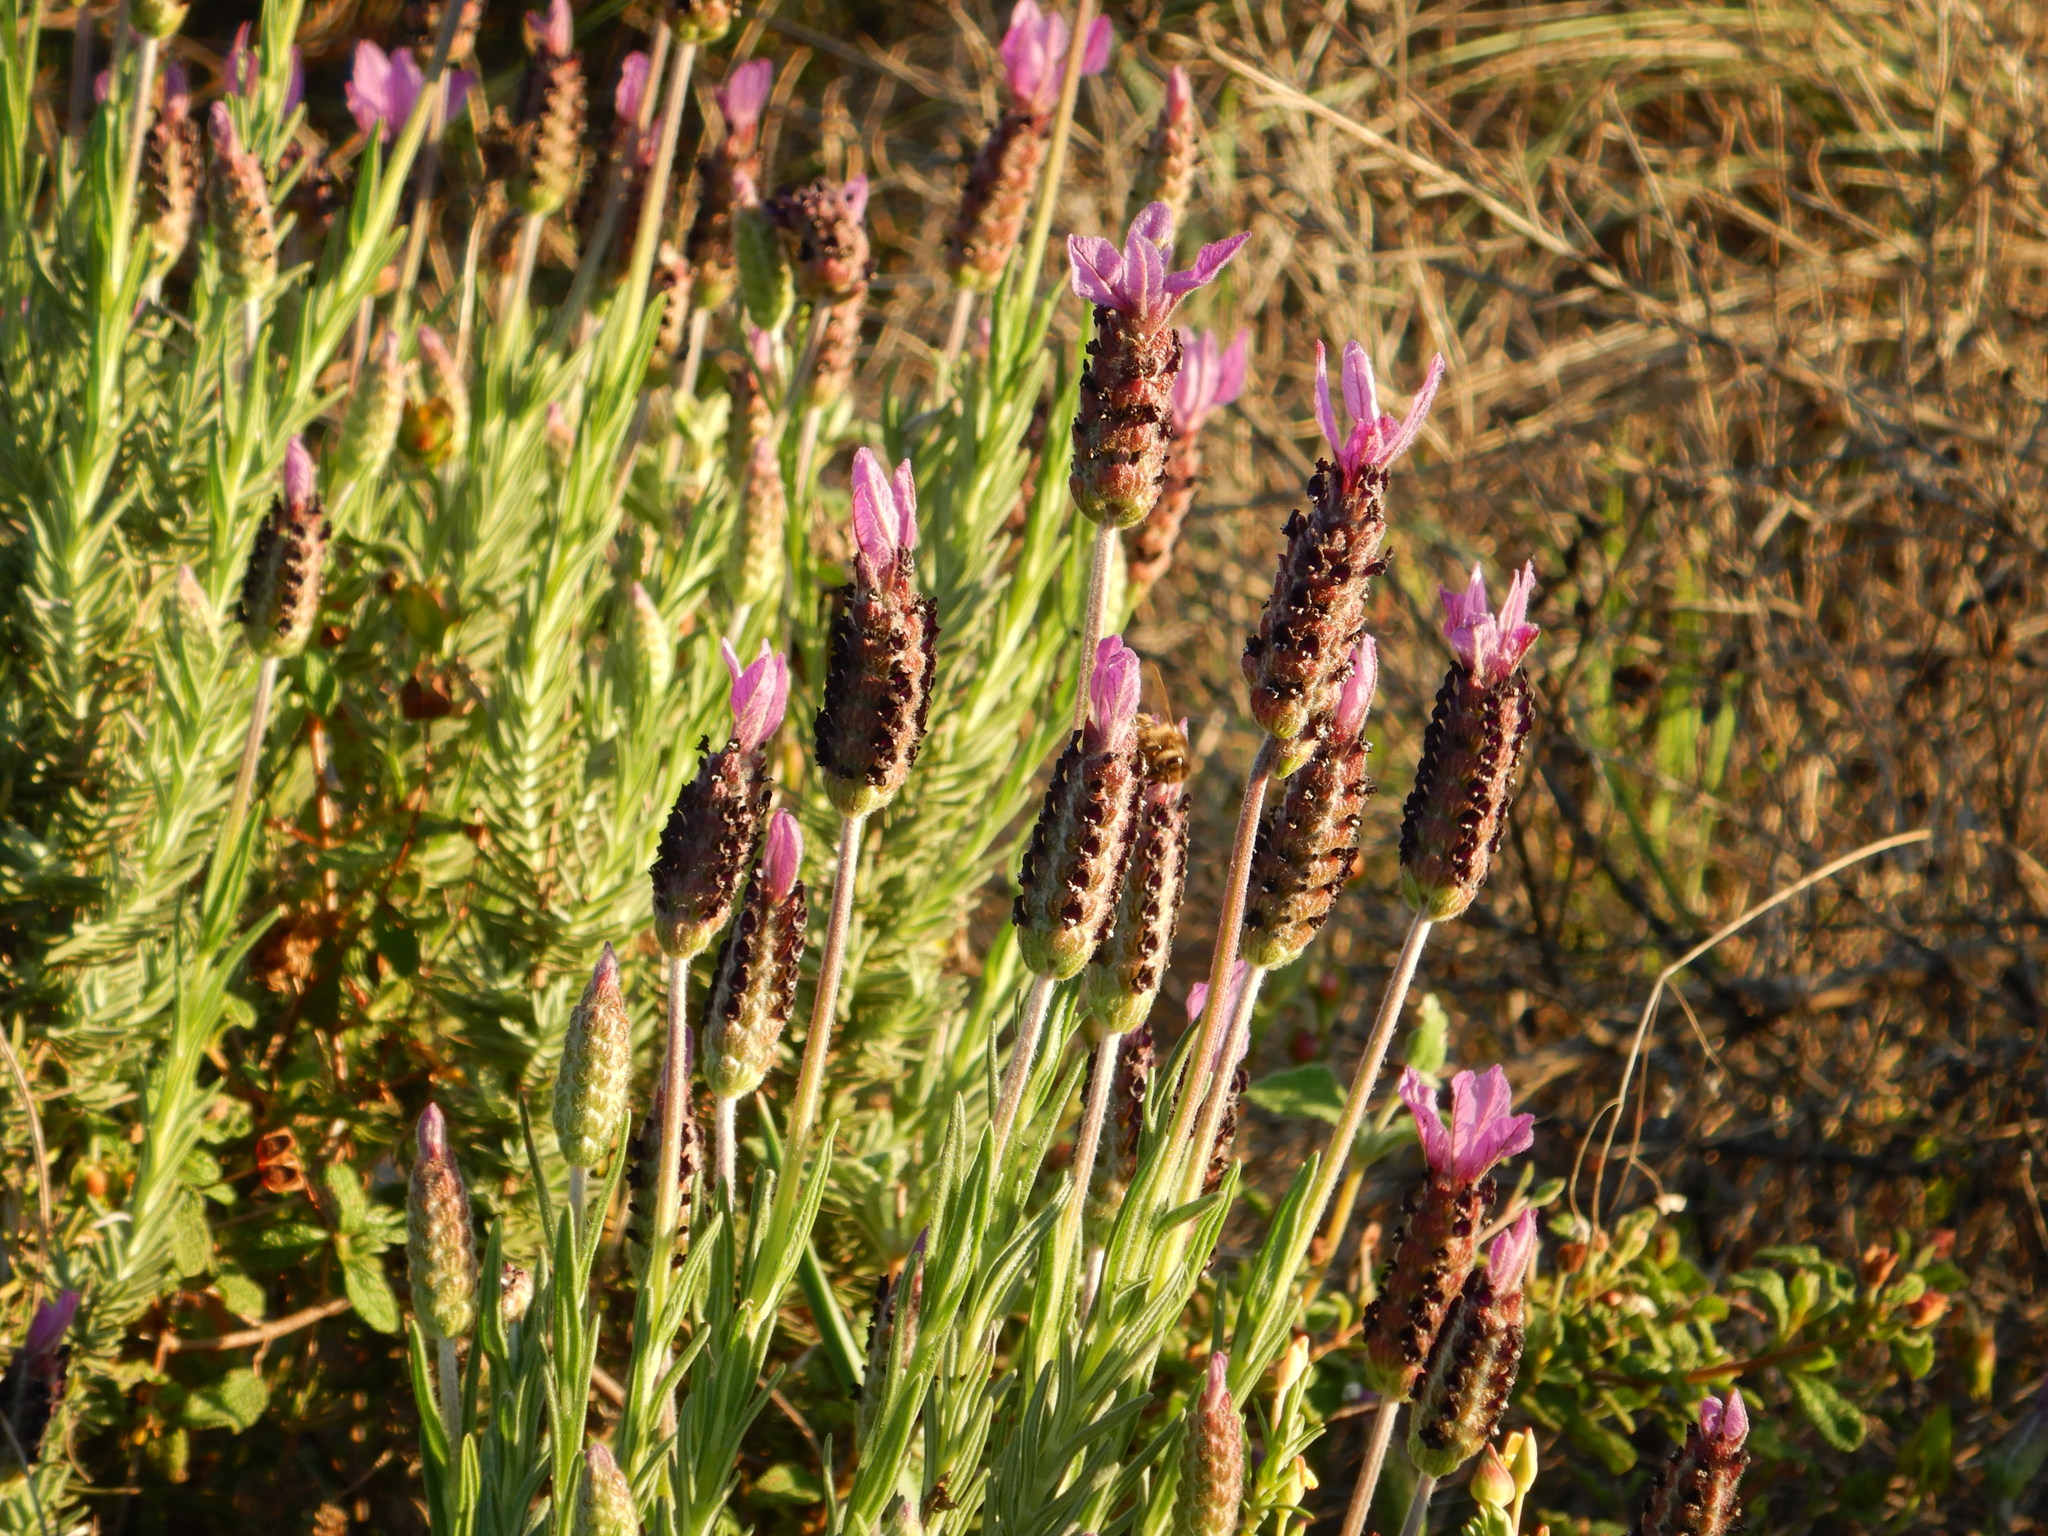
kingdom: Plantae
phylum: Tracheophyta
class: Magnoliopsida
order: Lamiales
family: Lamiaceae
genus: Lavandula
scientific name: Lavandula stoechas
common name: French lavender
